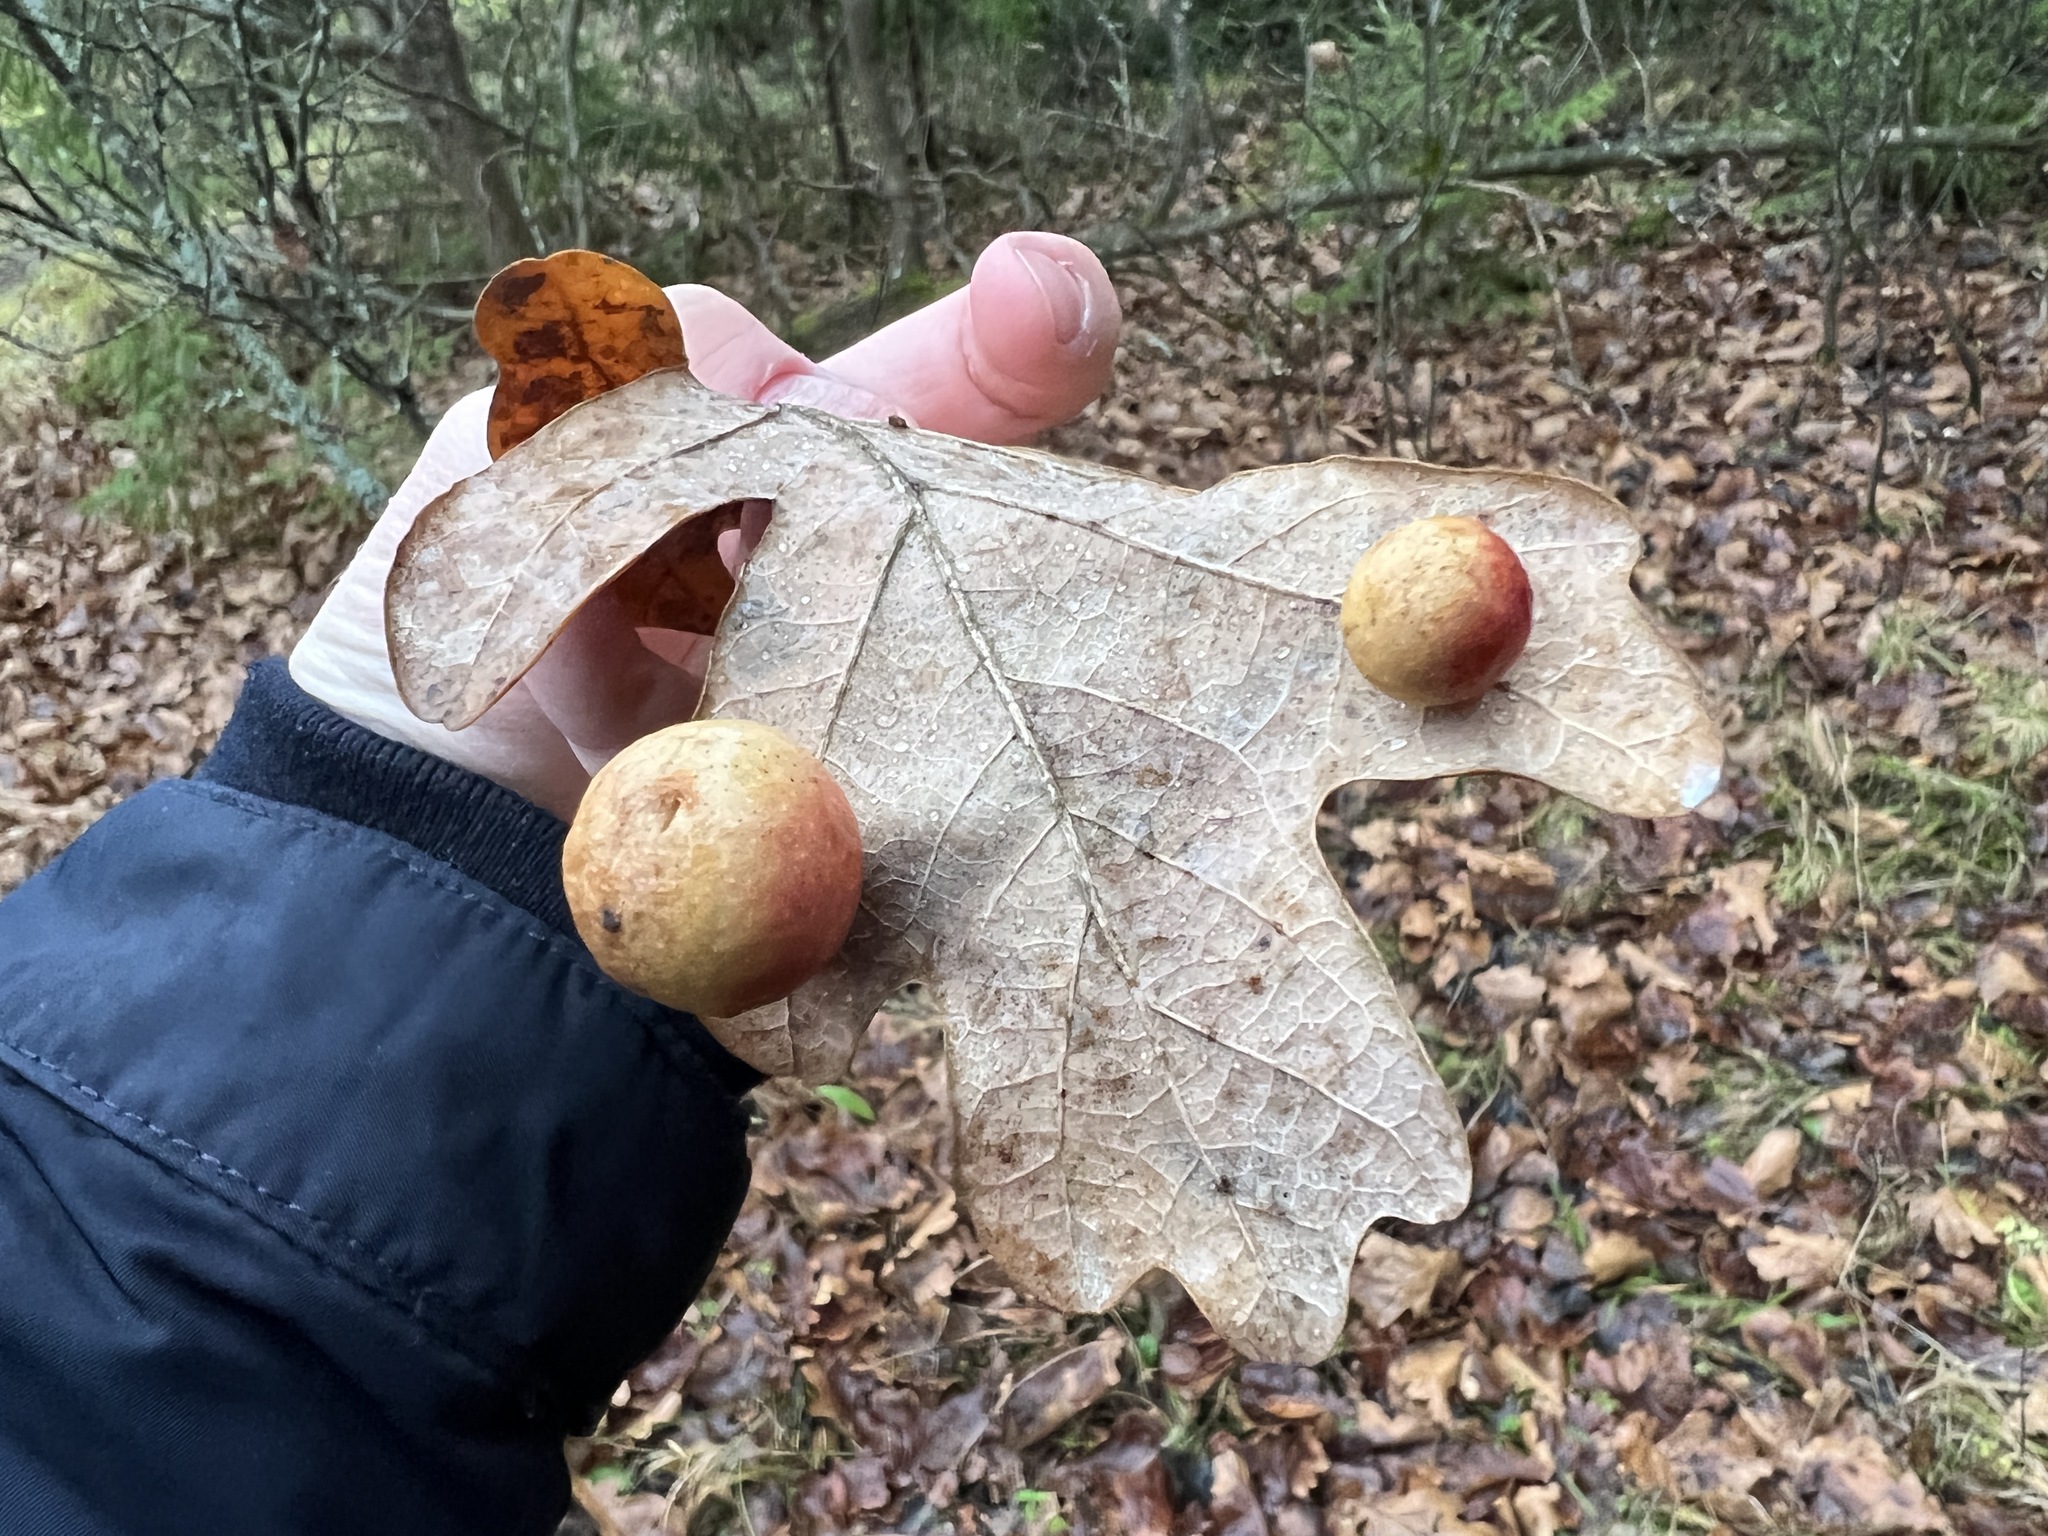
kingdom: Animalia
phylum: Arthropoda
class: Insecta
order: Hymenoptera
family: Cynipidae
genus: Cynips
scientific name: Cynips quercusfolii
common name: Cherry gall
